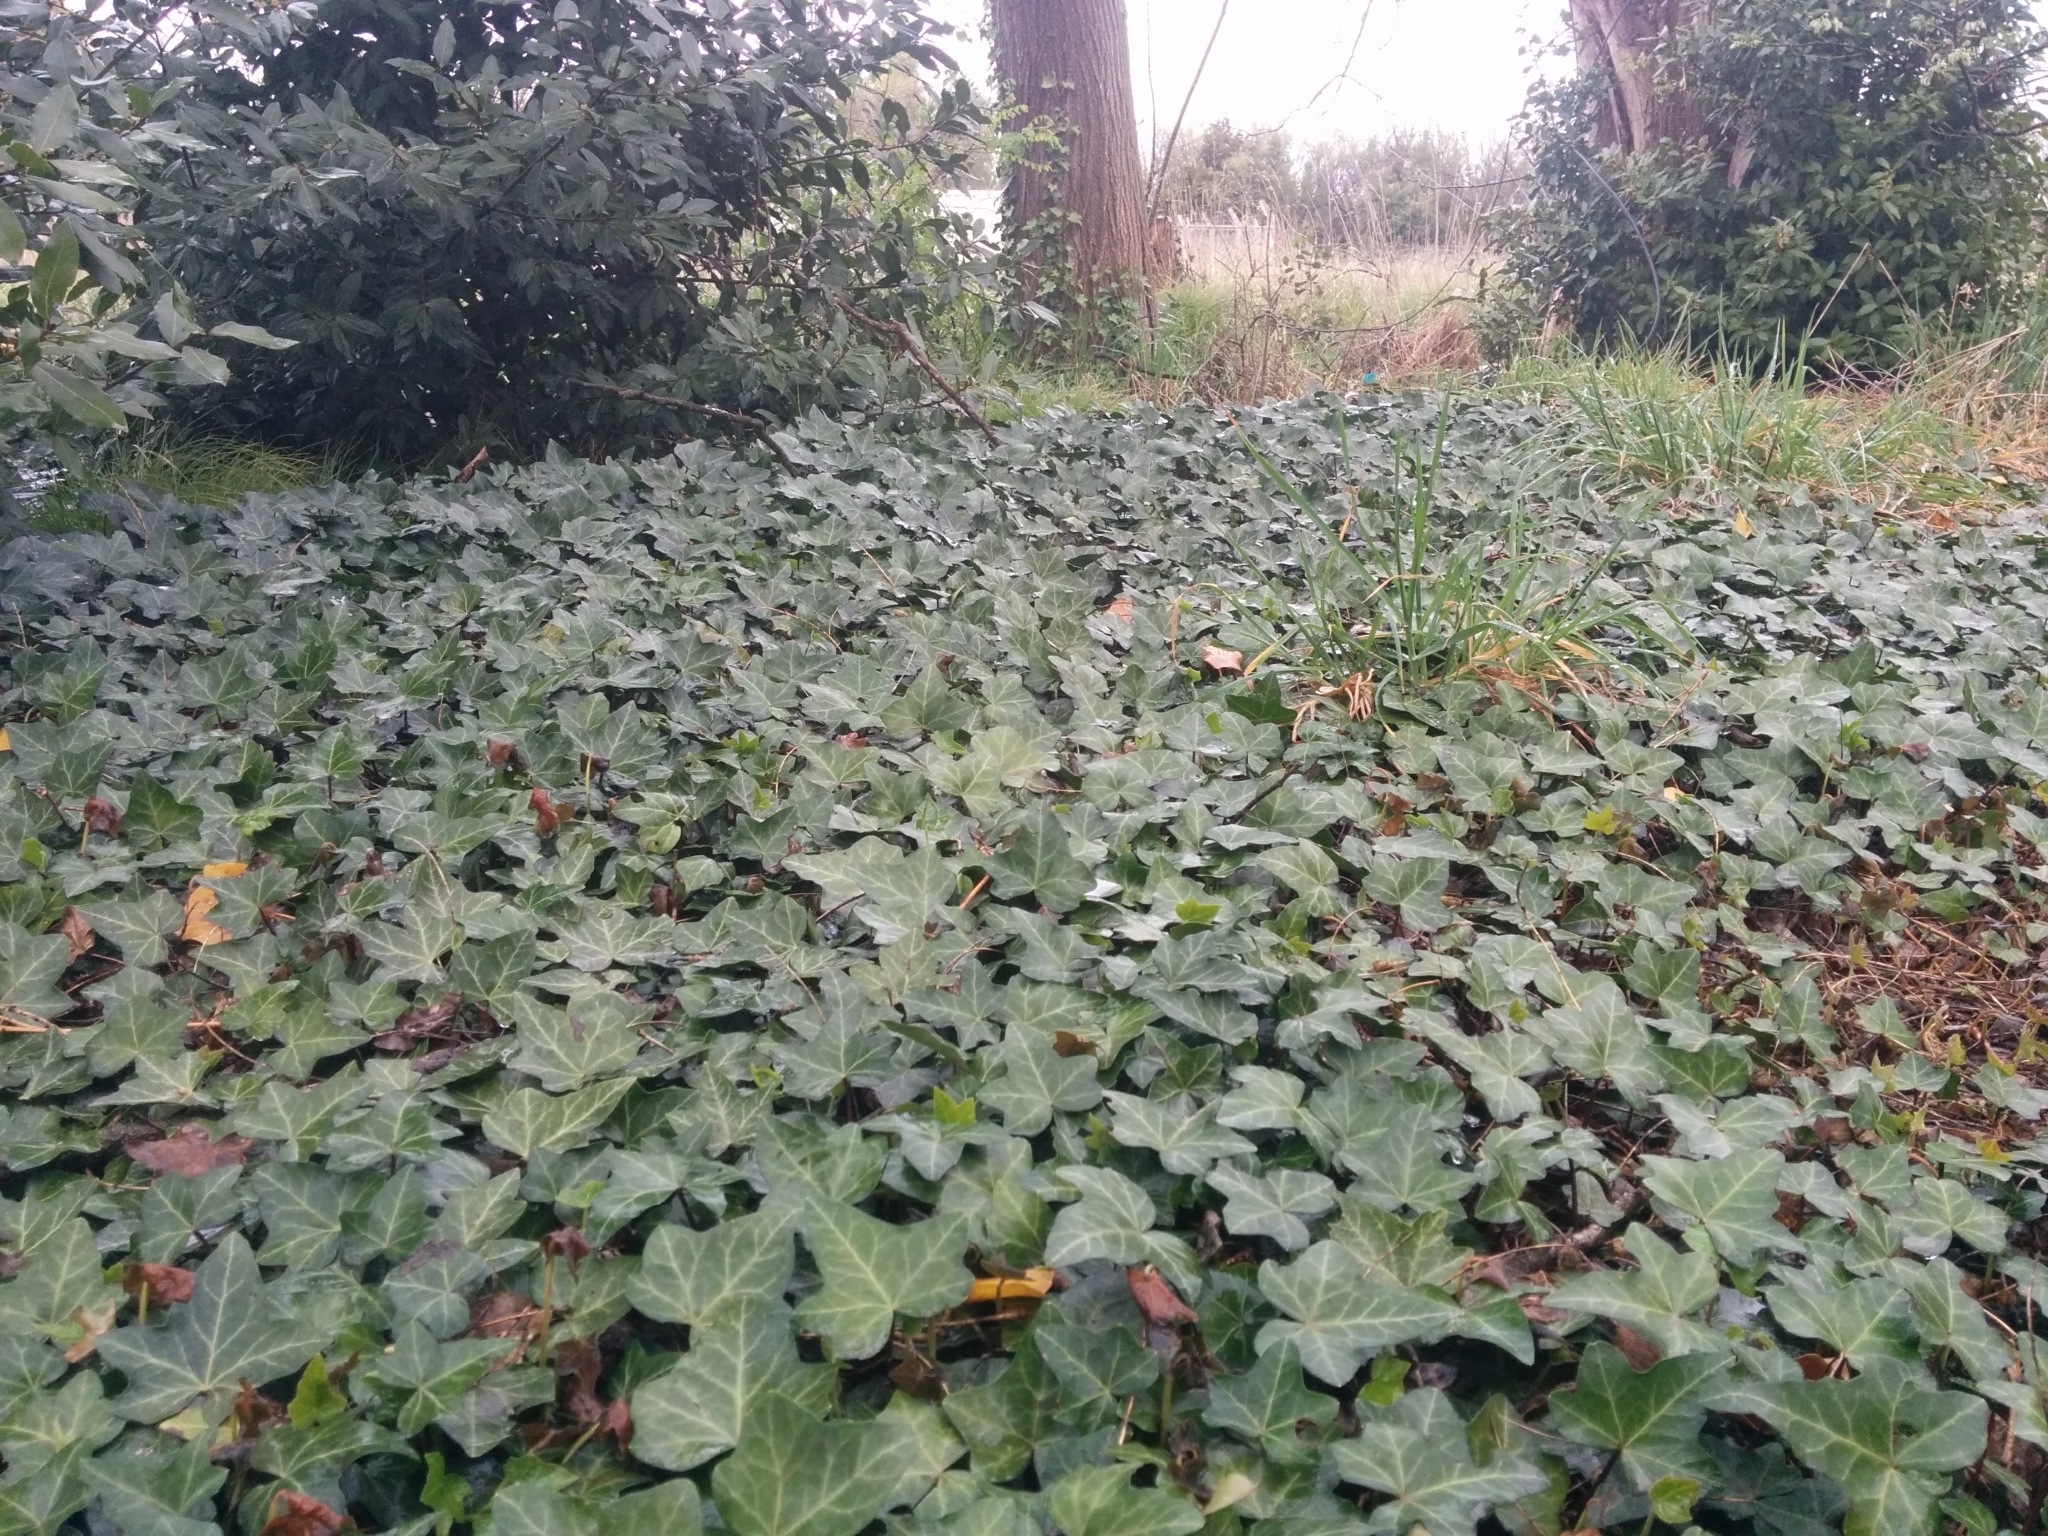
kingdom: Plantae
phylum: Tracheophyta
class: Magnoliopsida
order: Apiales
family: Araliaceae
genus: Hedera
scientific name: Hedera helix
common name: Ivy
